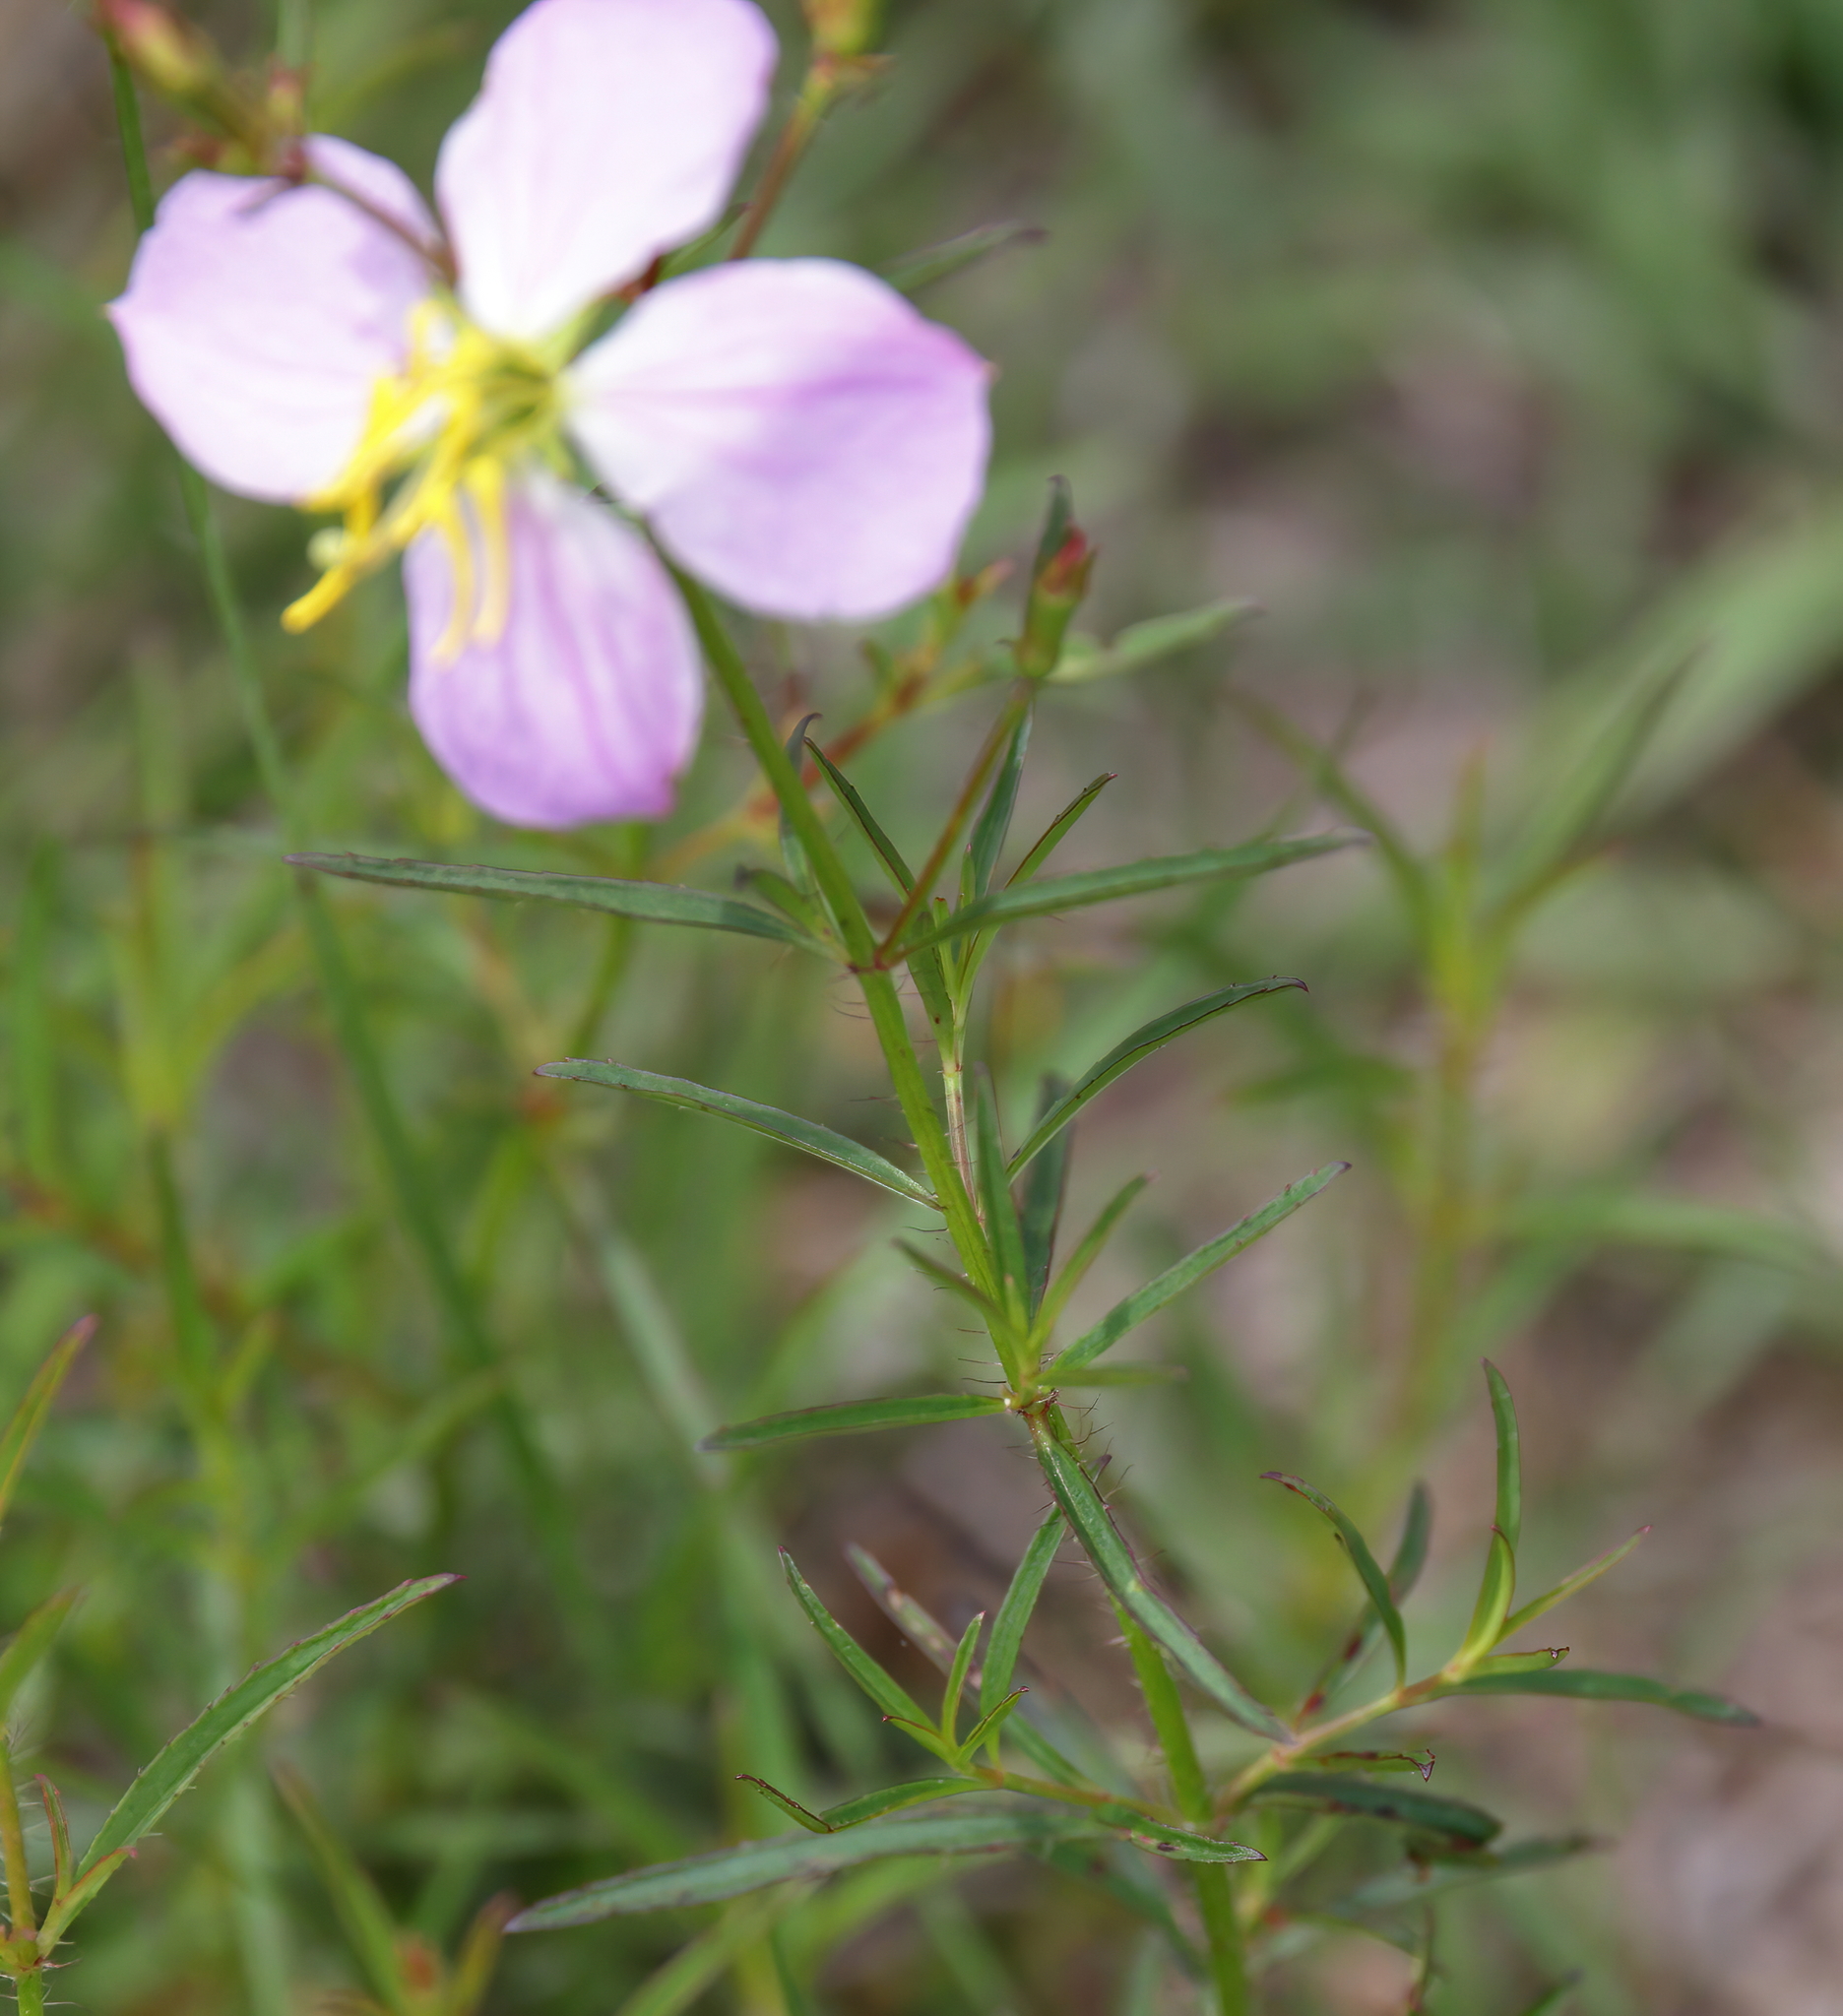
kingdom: Plantae
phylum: Tracheophyta
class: Magnoliopsida
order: Myrtales
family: Melastomataceae
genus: Rhexia
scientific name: Rhexia mariana
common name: Dull meadow-pitcher
